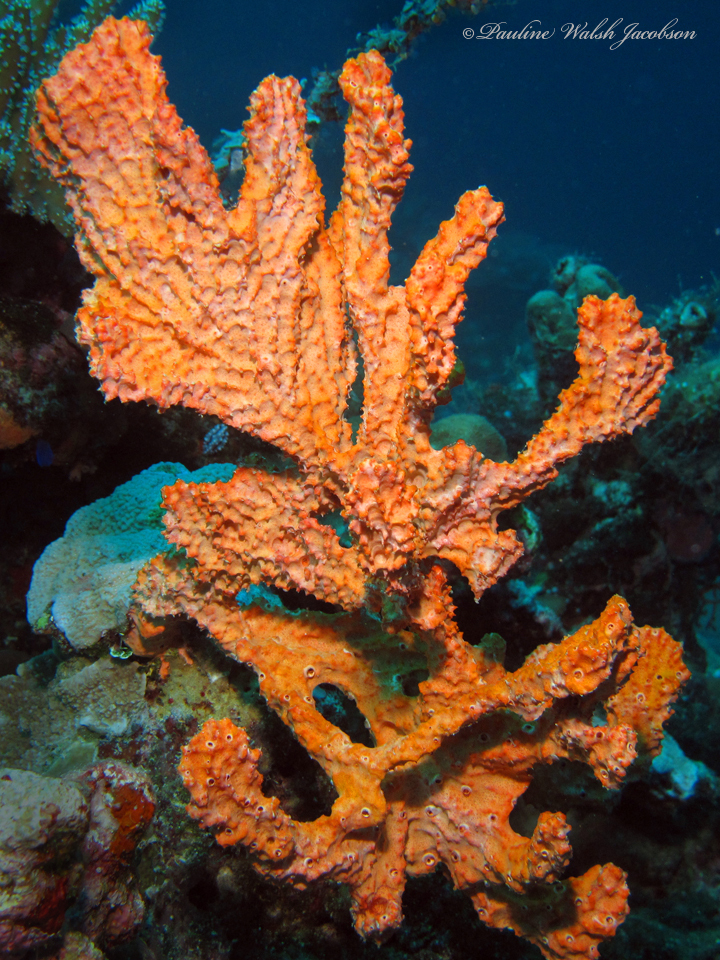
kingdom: Animalia
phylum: Porifera
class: Demospongiae
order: Scopalinida
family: Scopalinidae
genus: Stylissa
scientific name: Stylissa carteri
